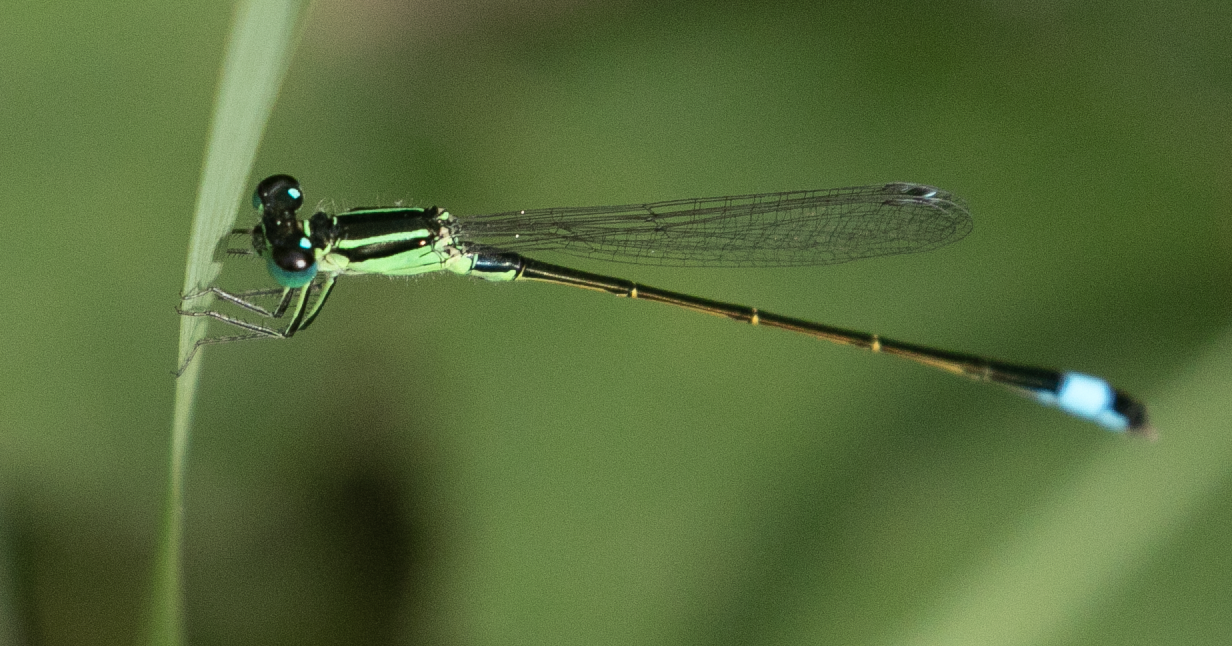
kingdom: Animalia
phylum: Arthropoda
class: Insecta
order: Odonata
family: Coenagrionidae
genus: Ischnura
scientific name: Ischnura elegans
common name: Blue-tailed damselfly
